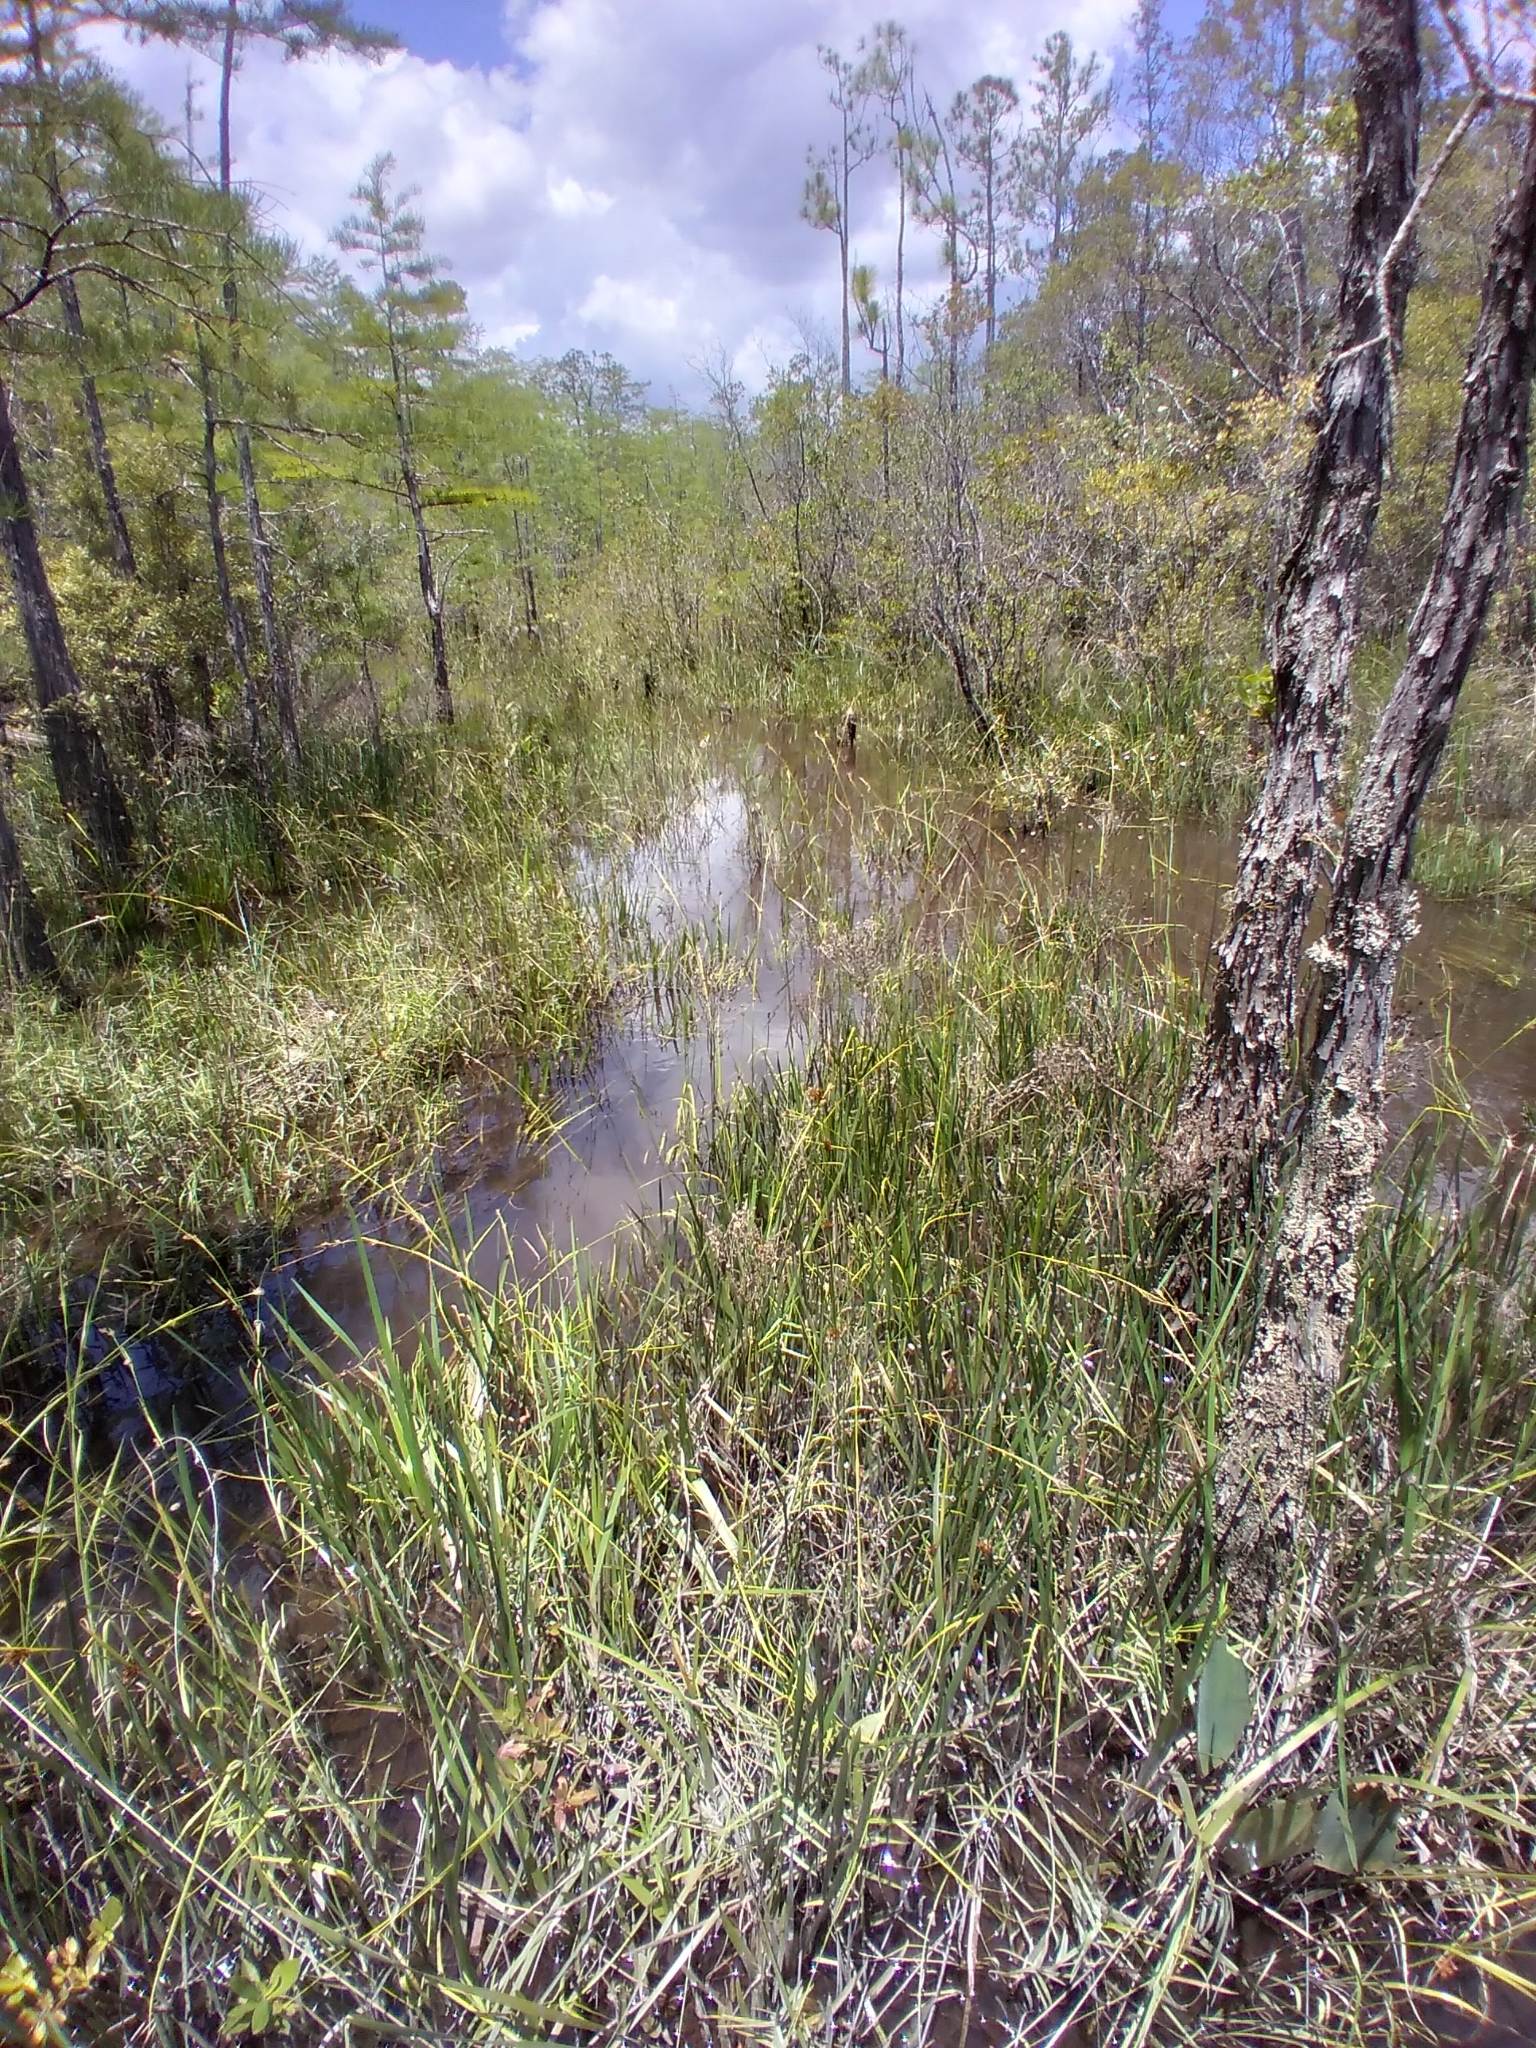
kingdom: Plantae
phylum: Tracheophyta
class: Liliopsida
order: Poales
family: Cyperaceae
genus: Rhynchospora
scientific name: Rhynchospora crinipes
